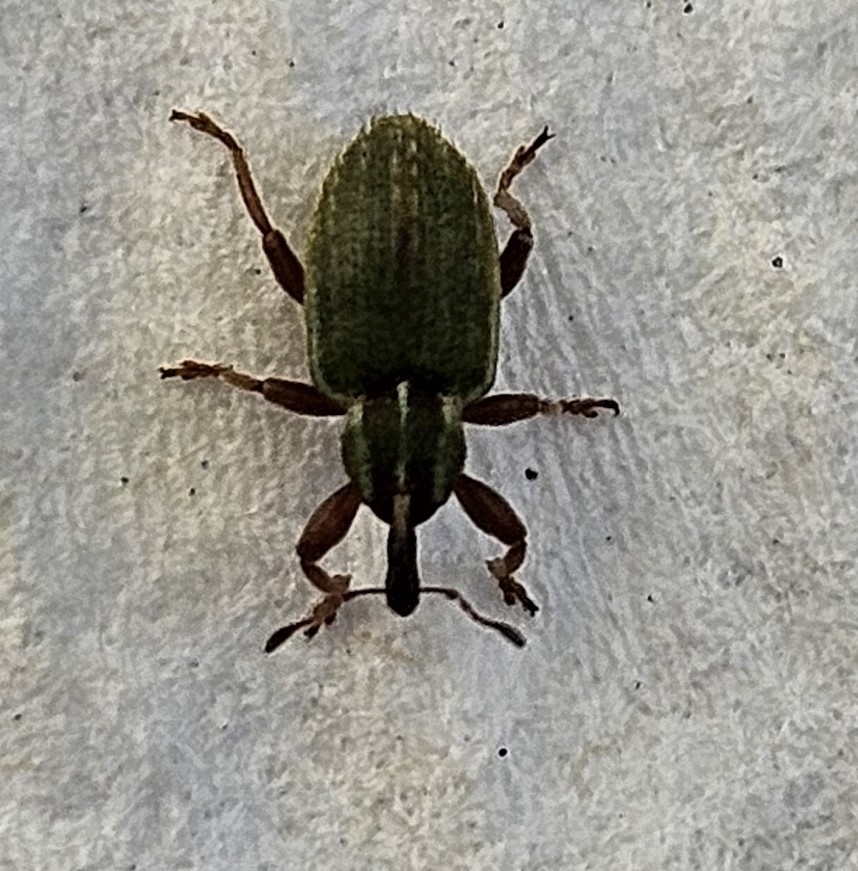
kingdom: Animalia
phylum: Arthropoda
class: Insecta
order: Coleoptera
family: Curculionidae
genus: Hypera
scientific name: Hypera nigrirostris
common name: Black-beaked green weevil
